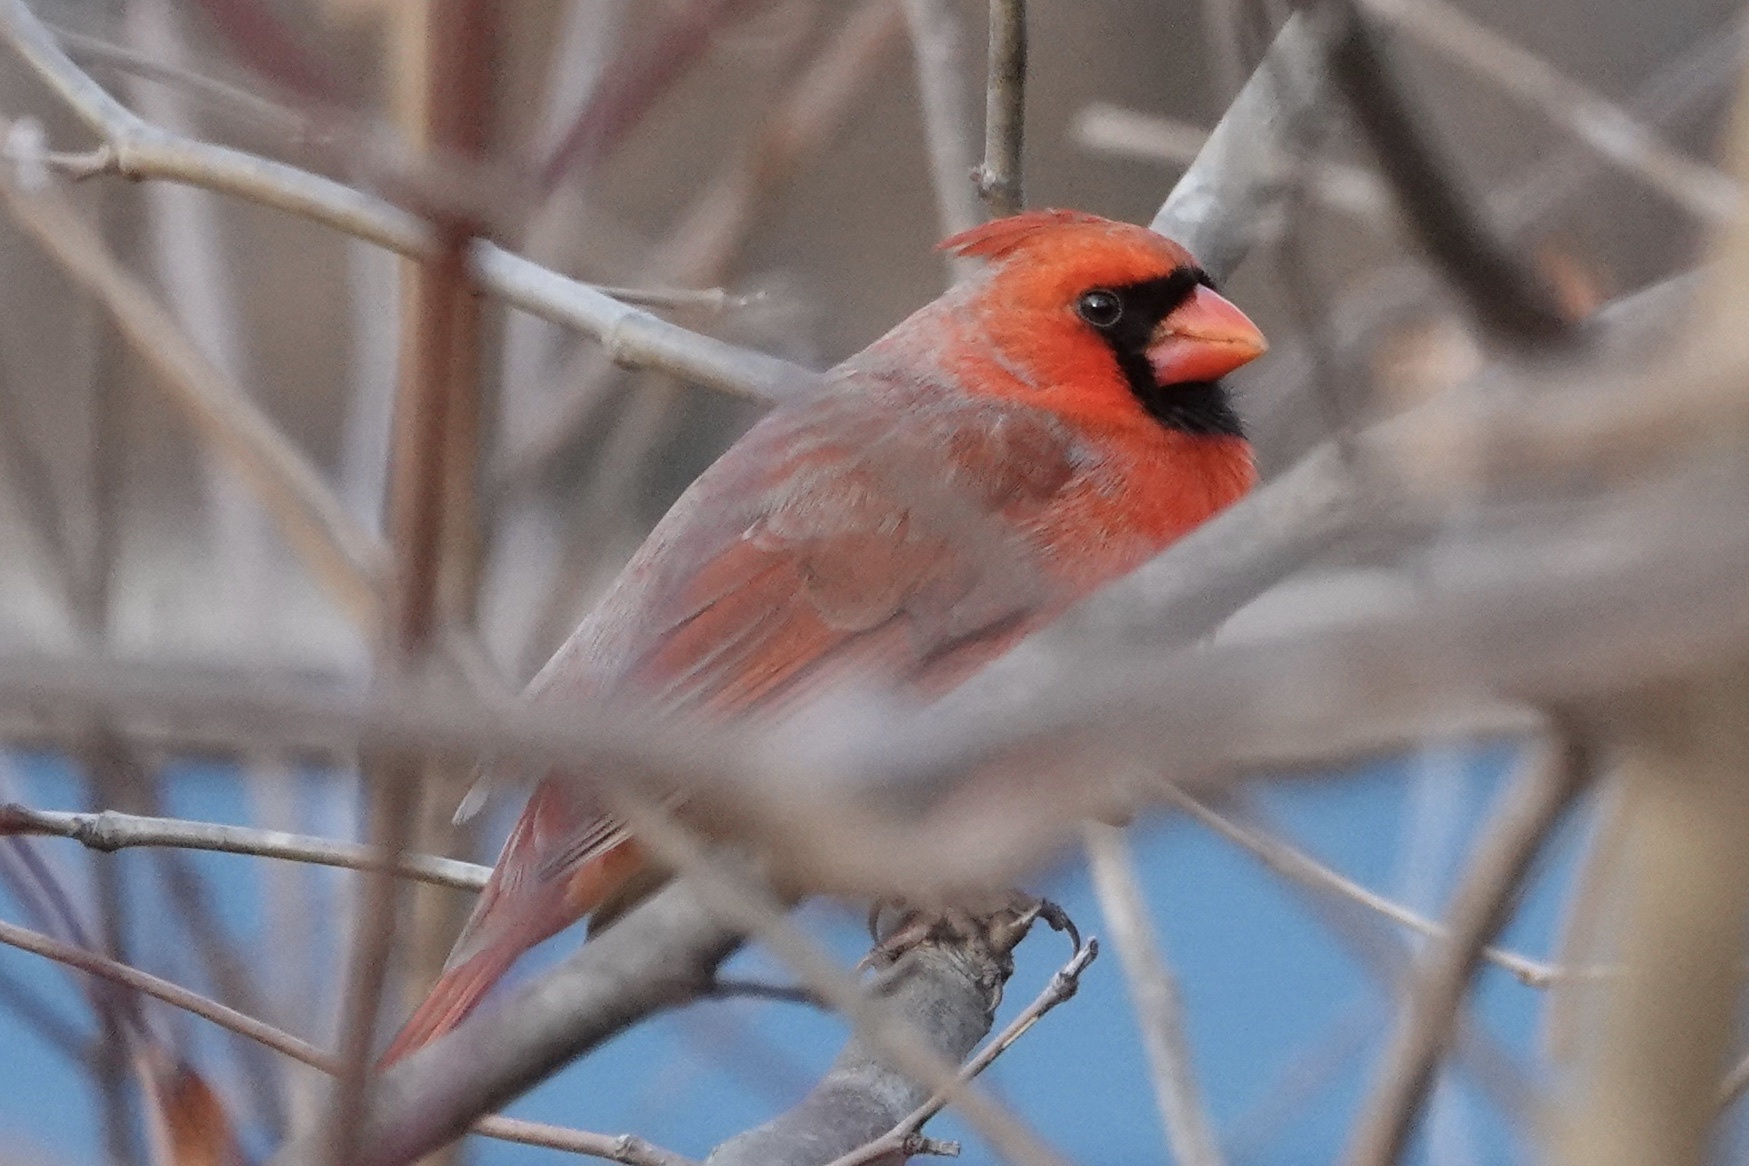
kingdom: Animalia
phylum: Chordata
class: Aves
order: Passeriformes
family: Cardinalidae
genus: Cardinalis
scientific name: Cardinalis cardinalis
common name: Northern cardinal
